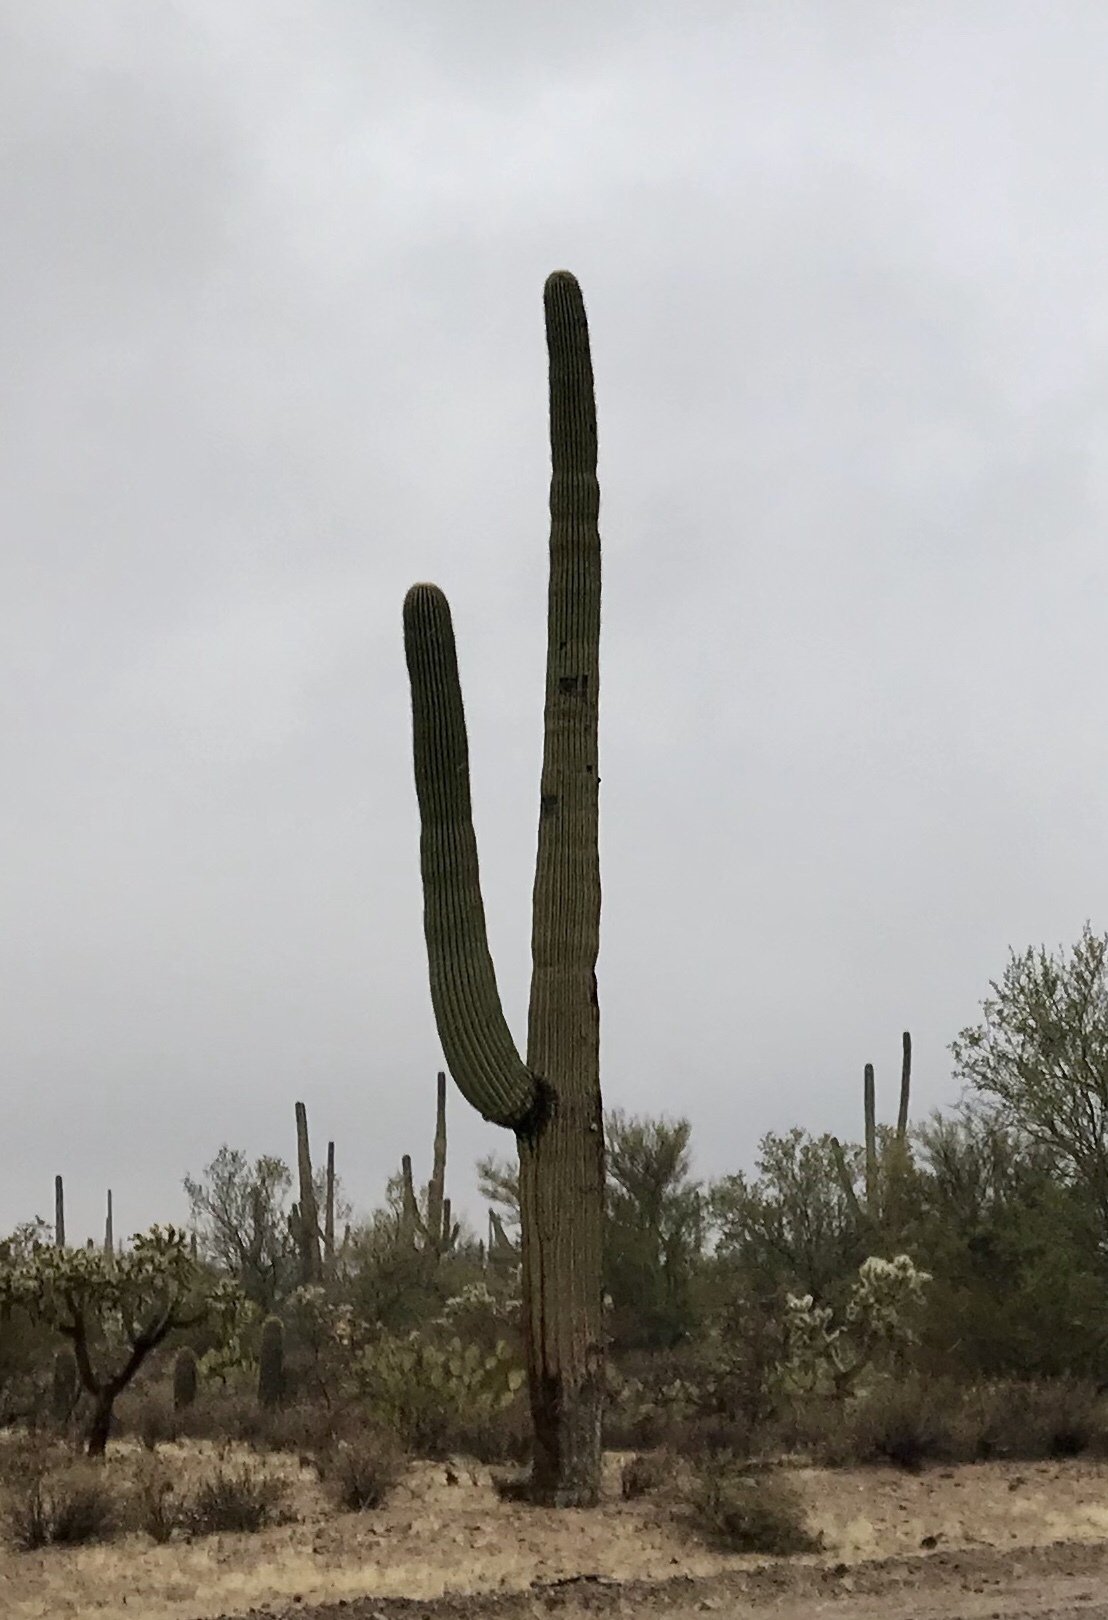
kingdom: Plantae
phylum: Tracheophyta
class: Magnoliopsida
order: Caryophyllales
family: Cactaceae
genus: Carnegiea
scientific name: Carnegiea gigantea
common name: Saguaro
